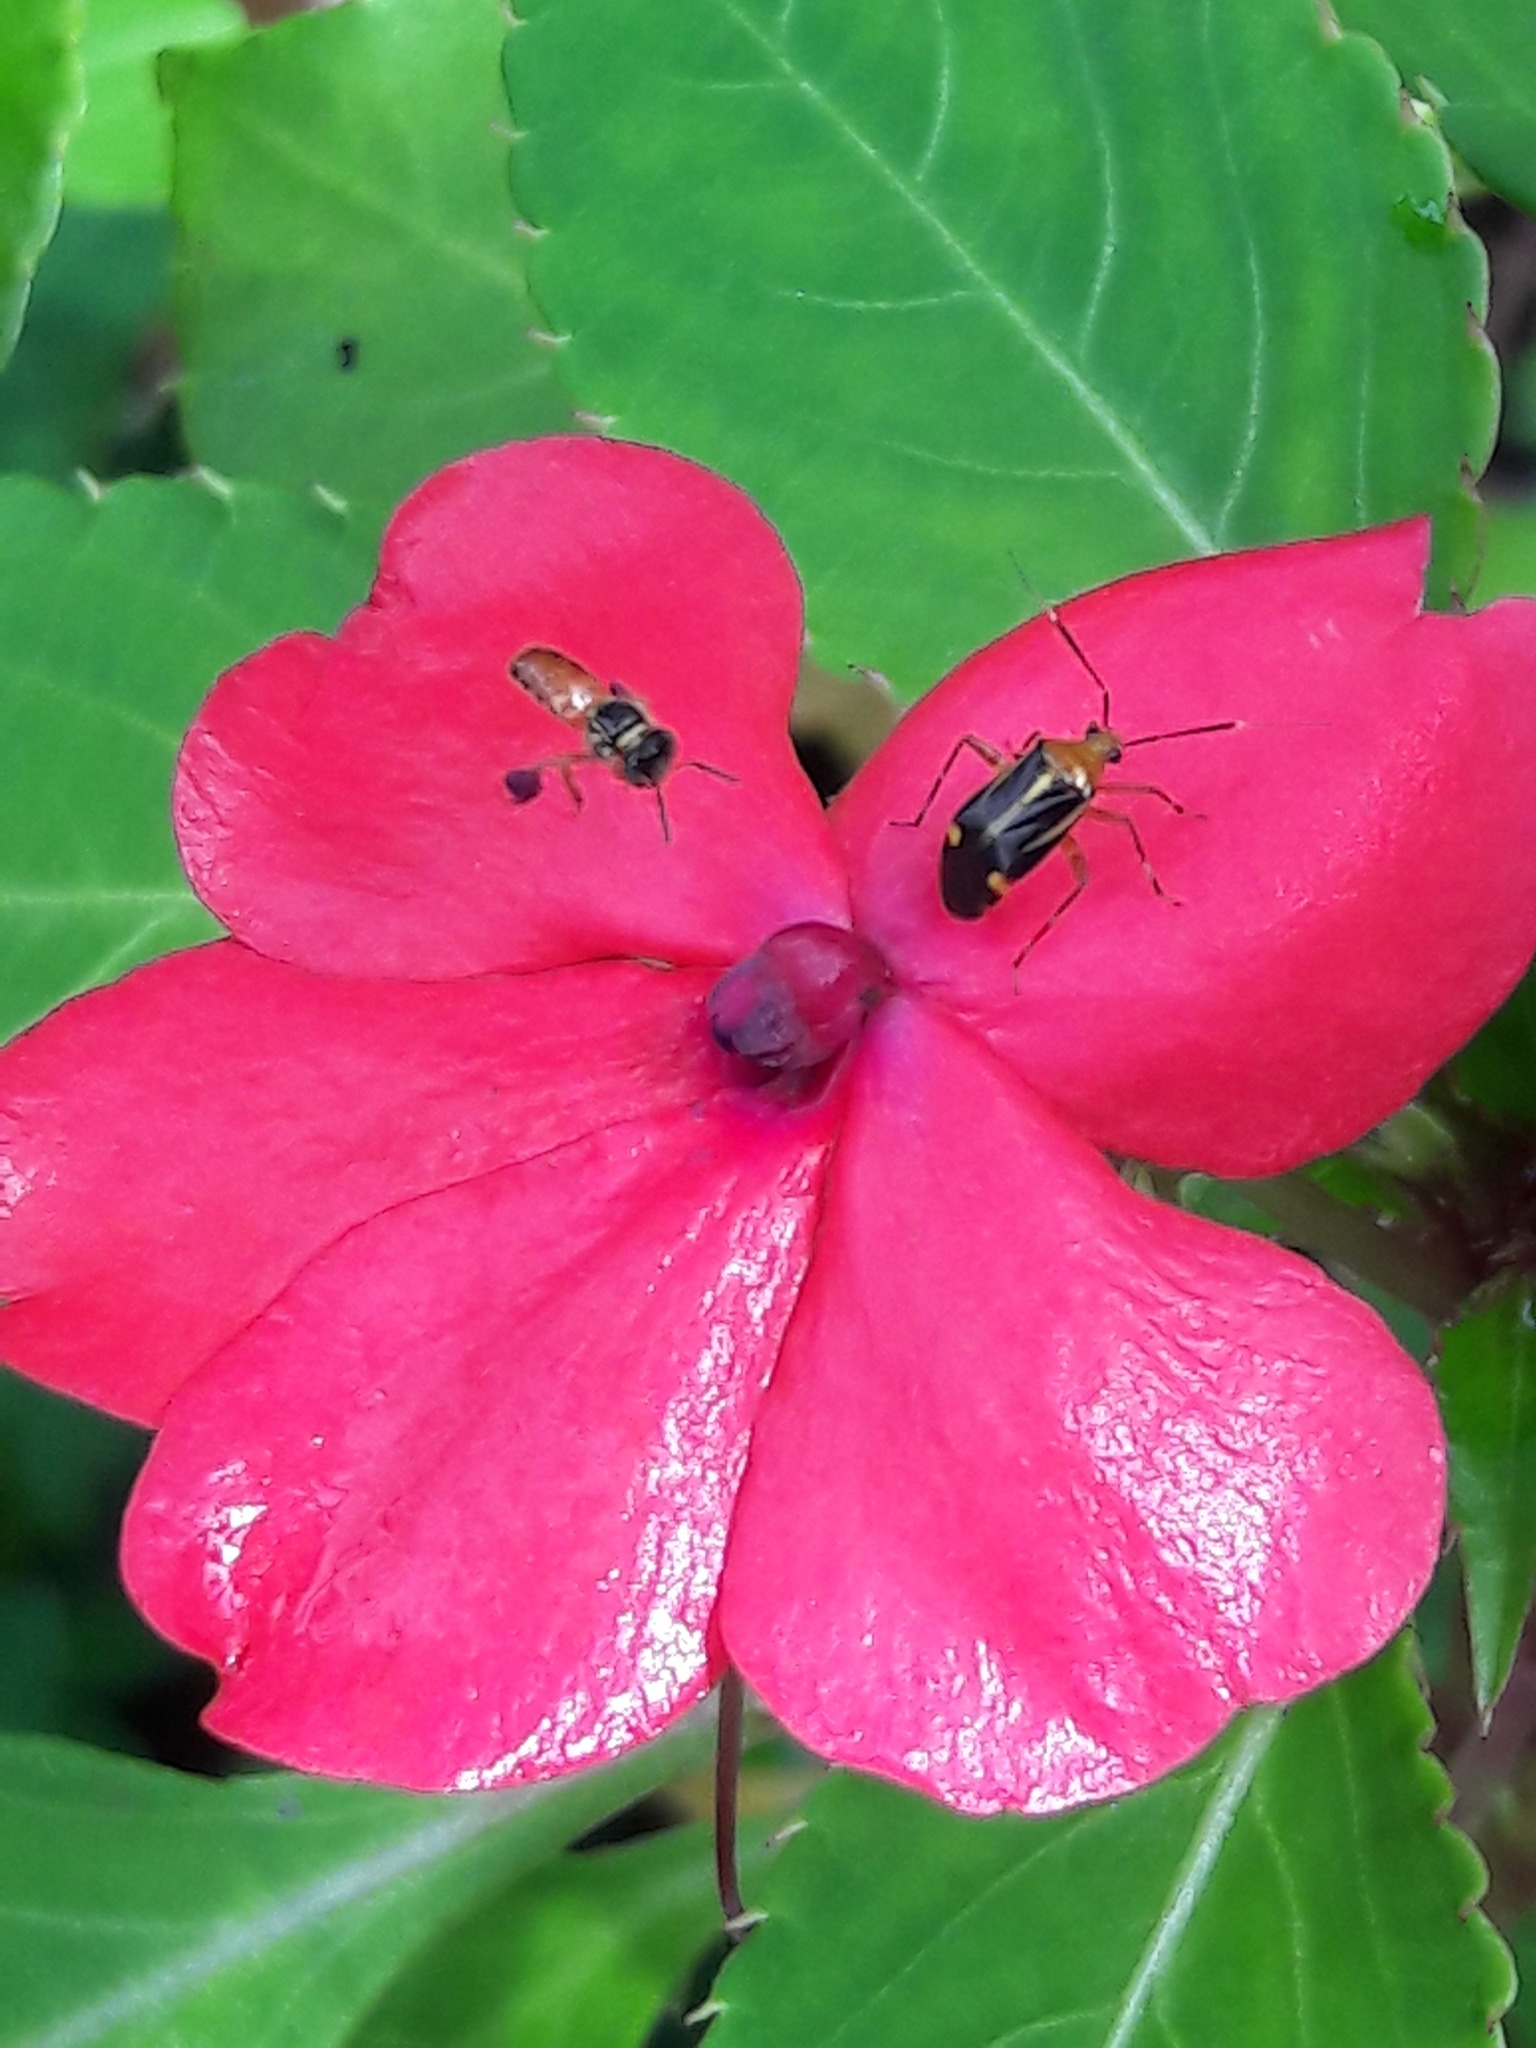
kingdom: Animalia
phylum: Arthropoda
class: Insecta
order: Hemiptera
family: Miridae
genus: Horciasinus
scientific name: Horciasinus signoreti
